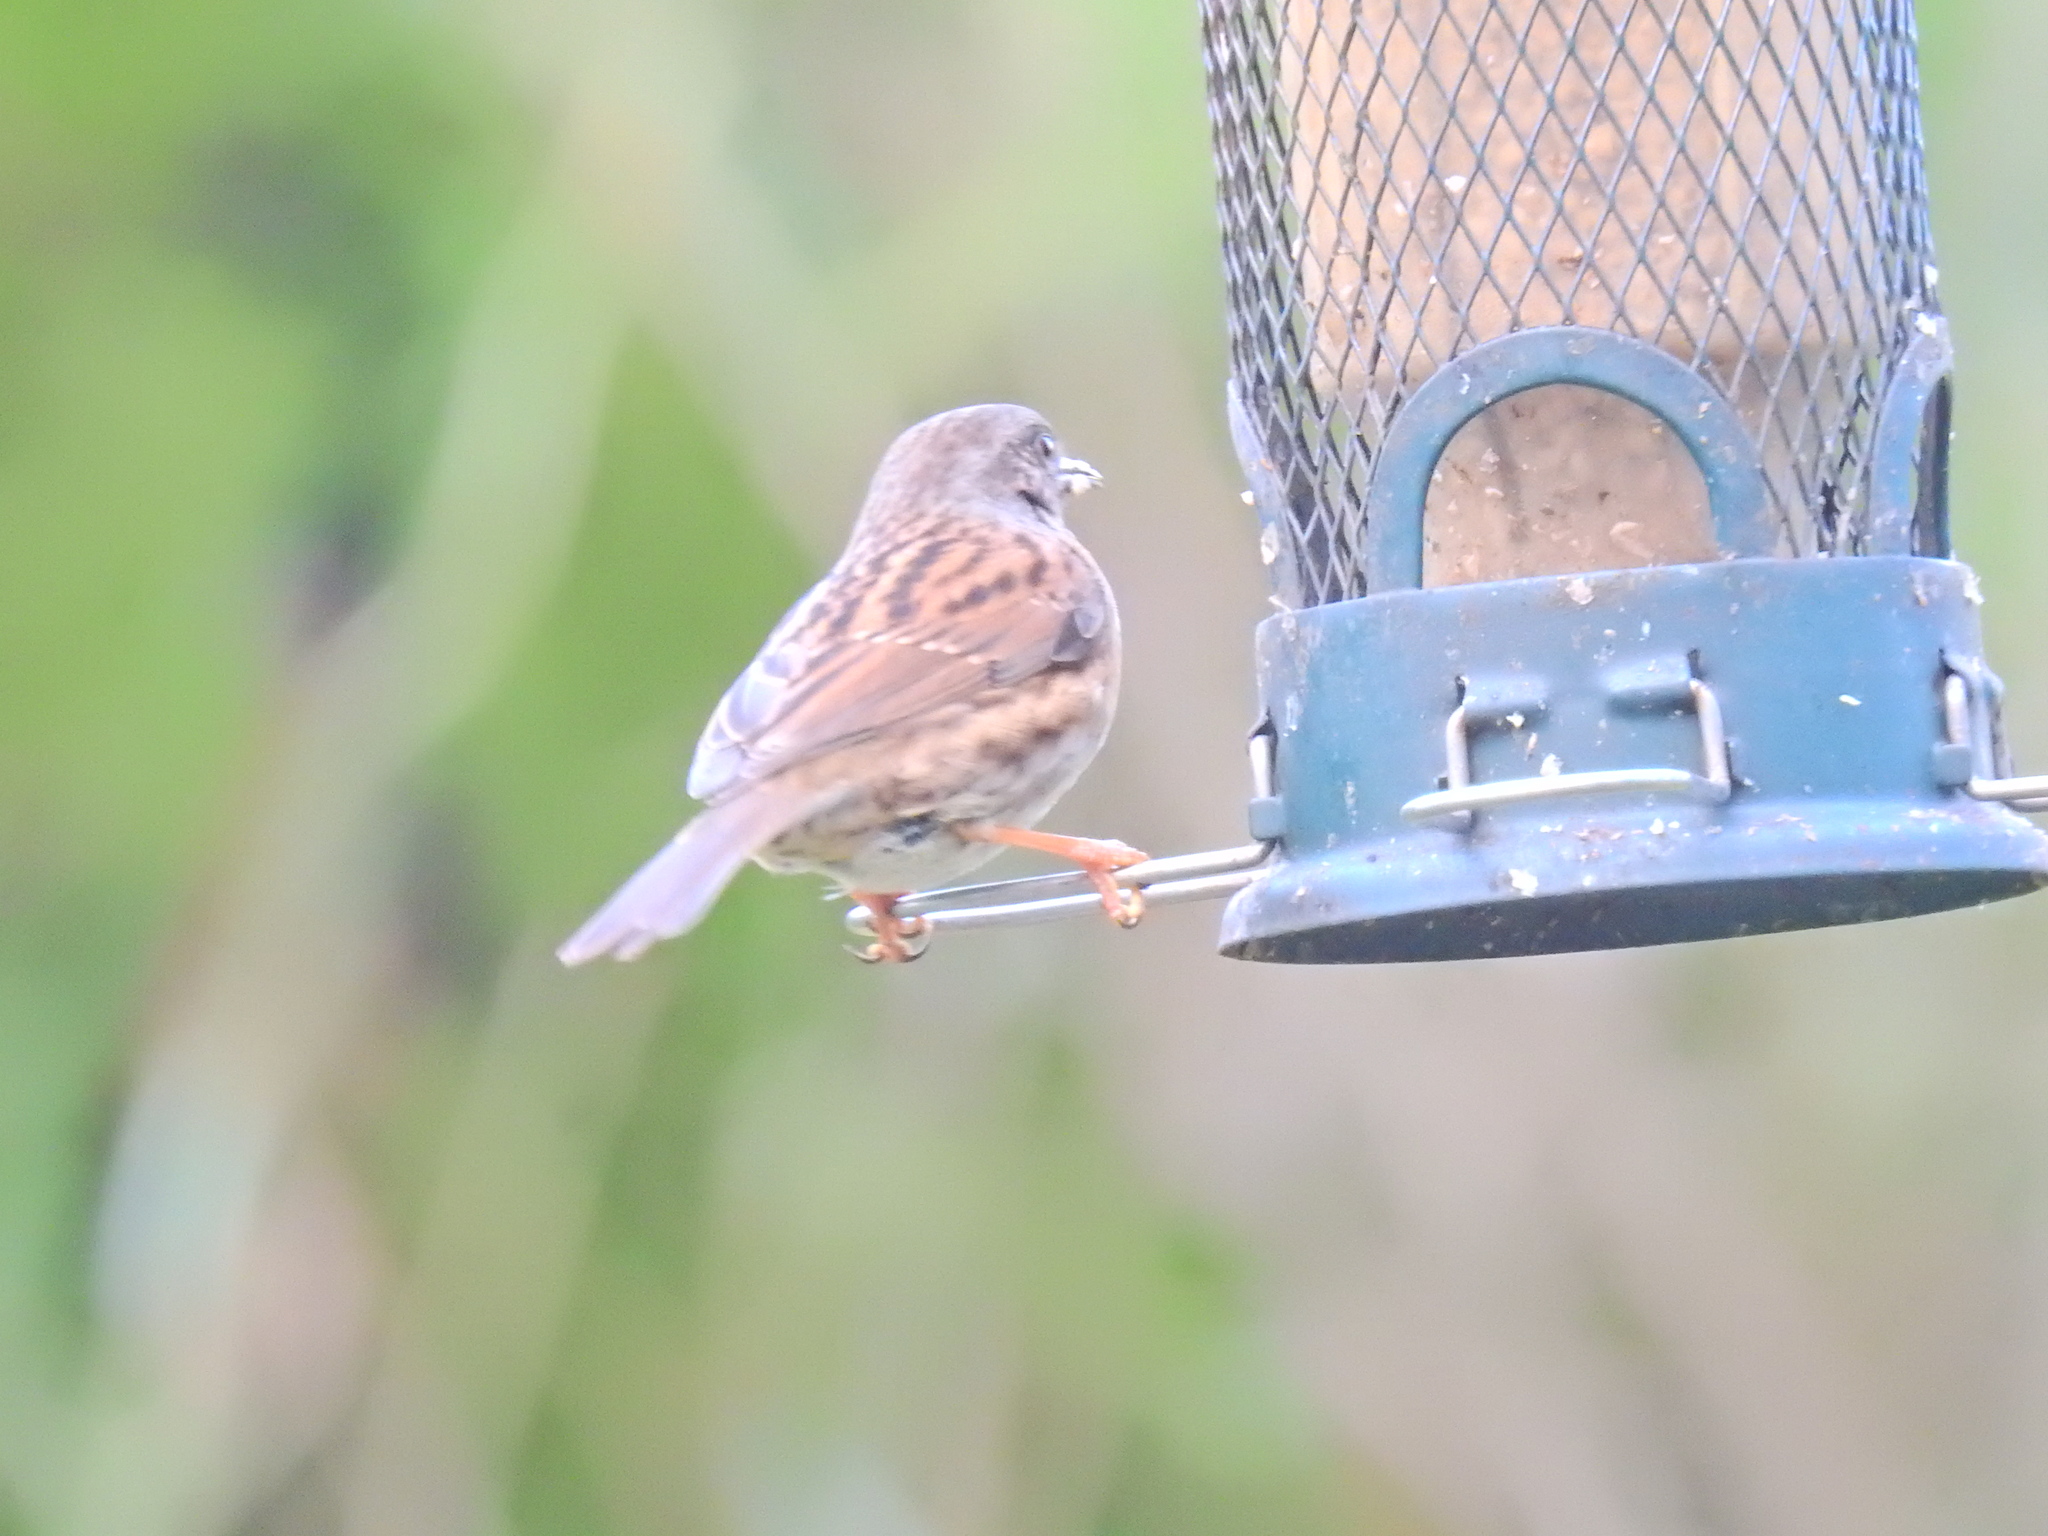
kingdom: Animalia
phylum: Chordata
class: Aves
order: Passeriformes
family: Prunellidae
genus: Prunella
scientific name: Prunella modularis
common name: Dunnock
